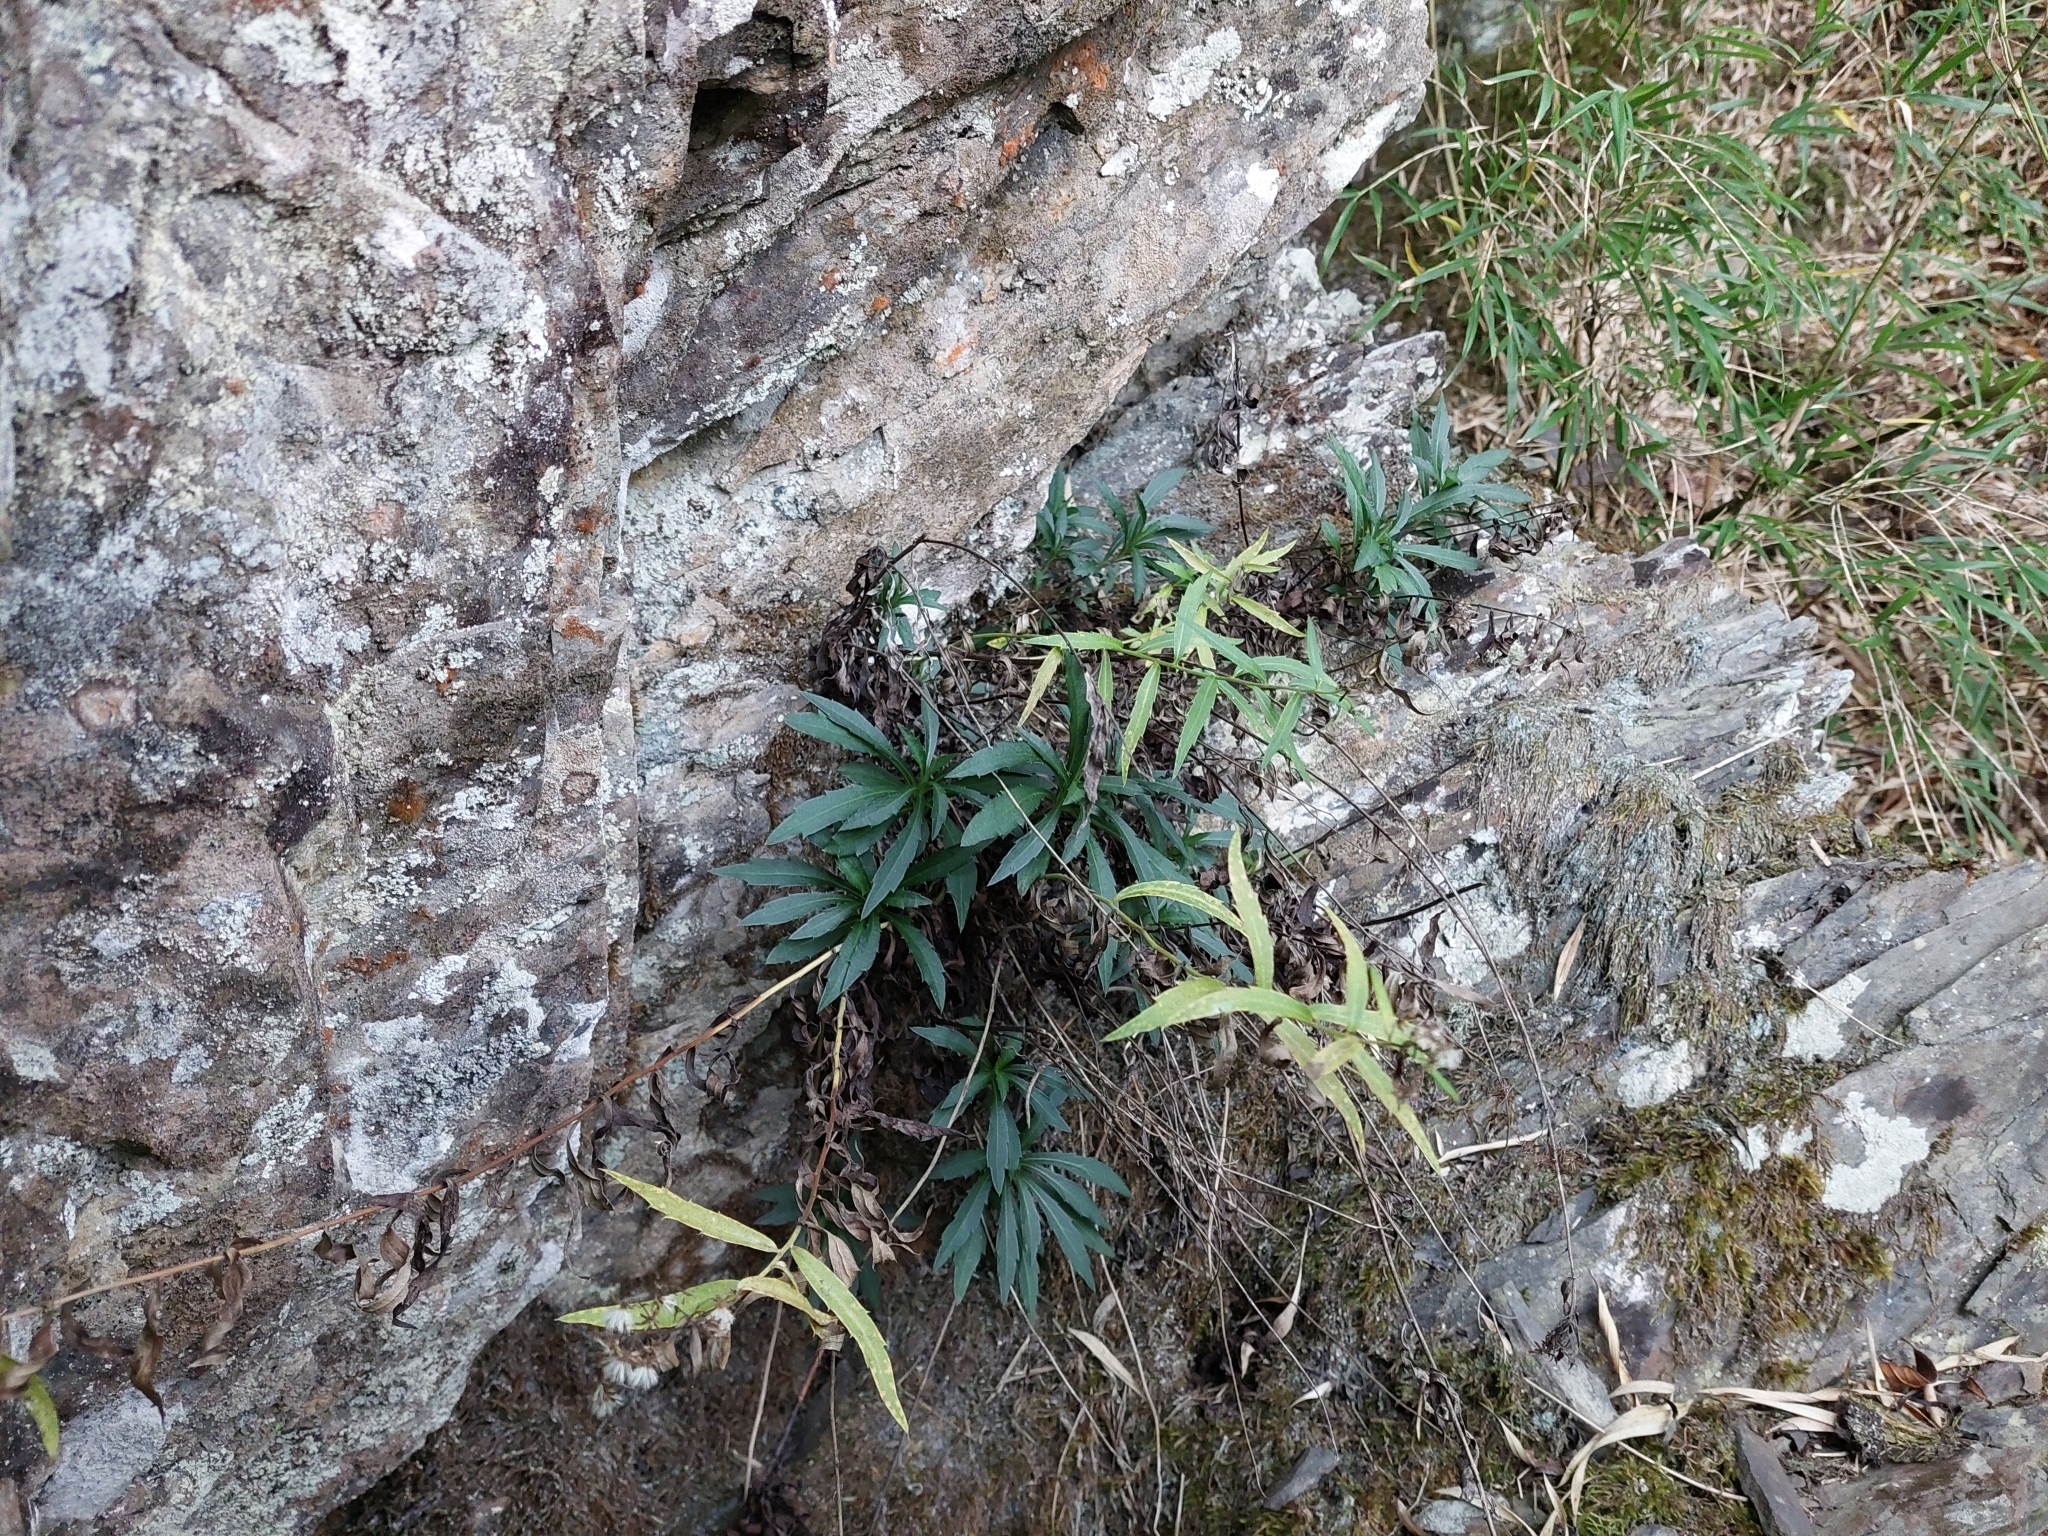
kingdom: Plantae
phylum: Tracheophyta
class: Magnoliopsida
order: Asterales
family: Asteraceae
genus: Aster
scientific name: Aster taiwanensis
